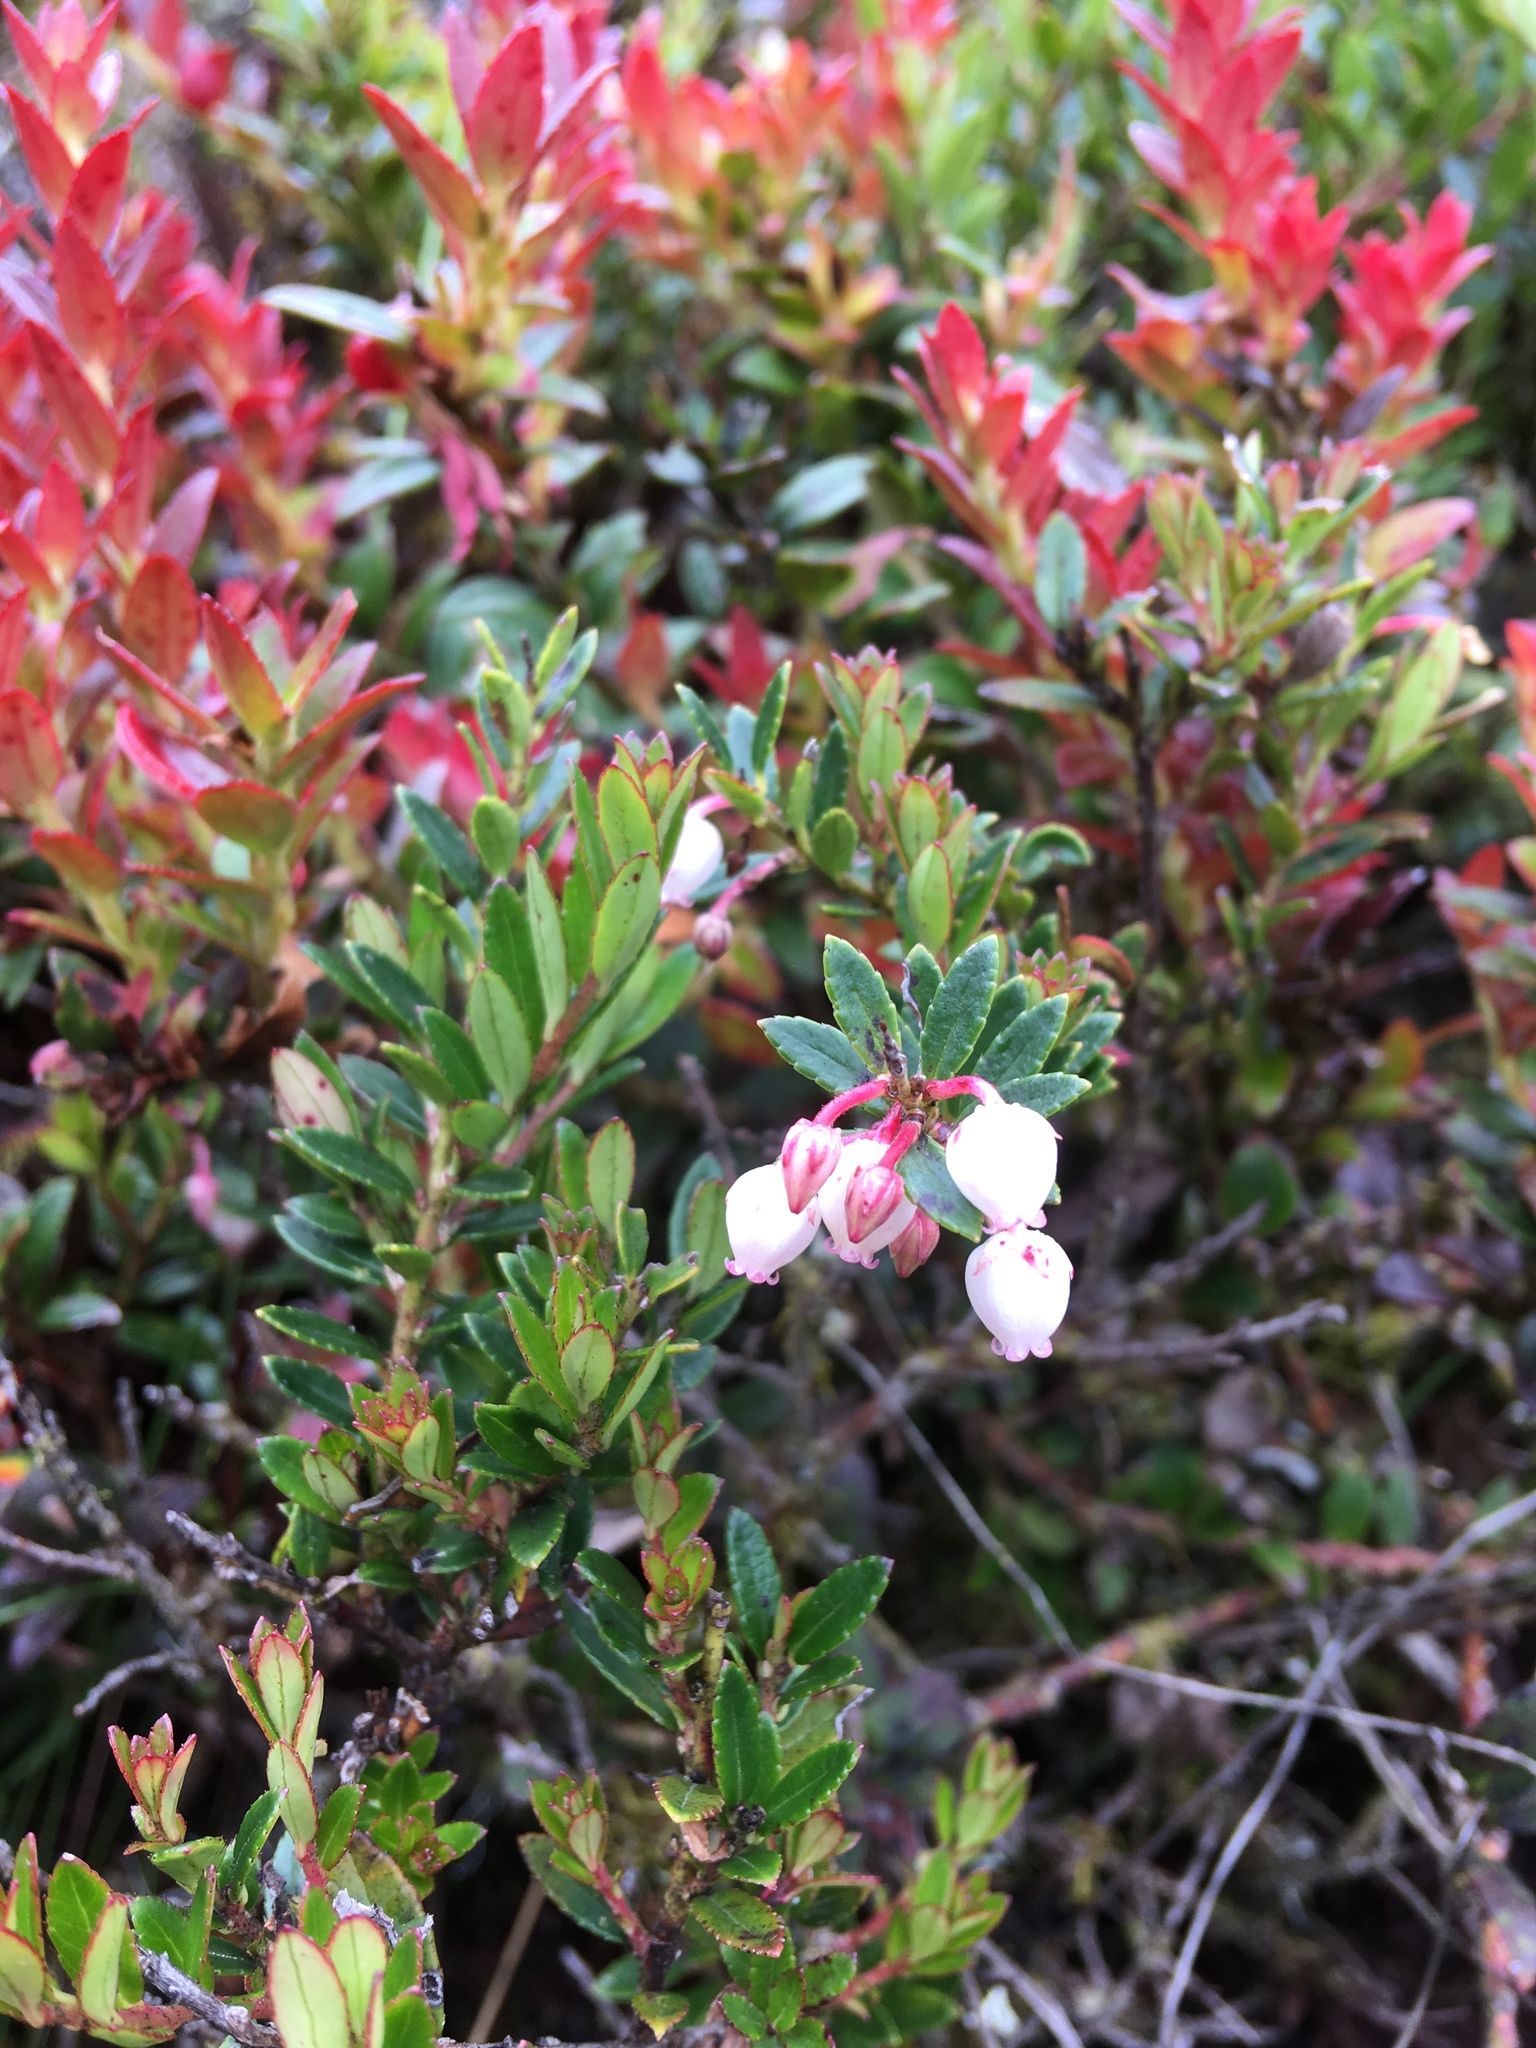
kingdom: Plantae
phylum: Tracheophyta
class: Magnoliopsida
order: Ericales
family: Ericaceae
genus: Gaultheria
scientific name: Gaultheria myrsinoides
